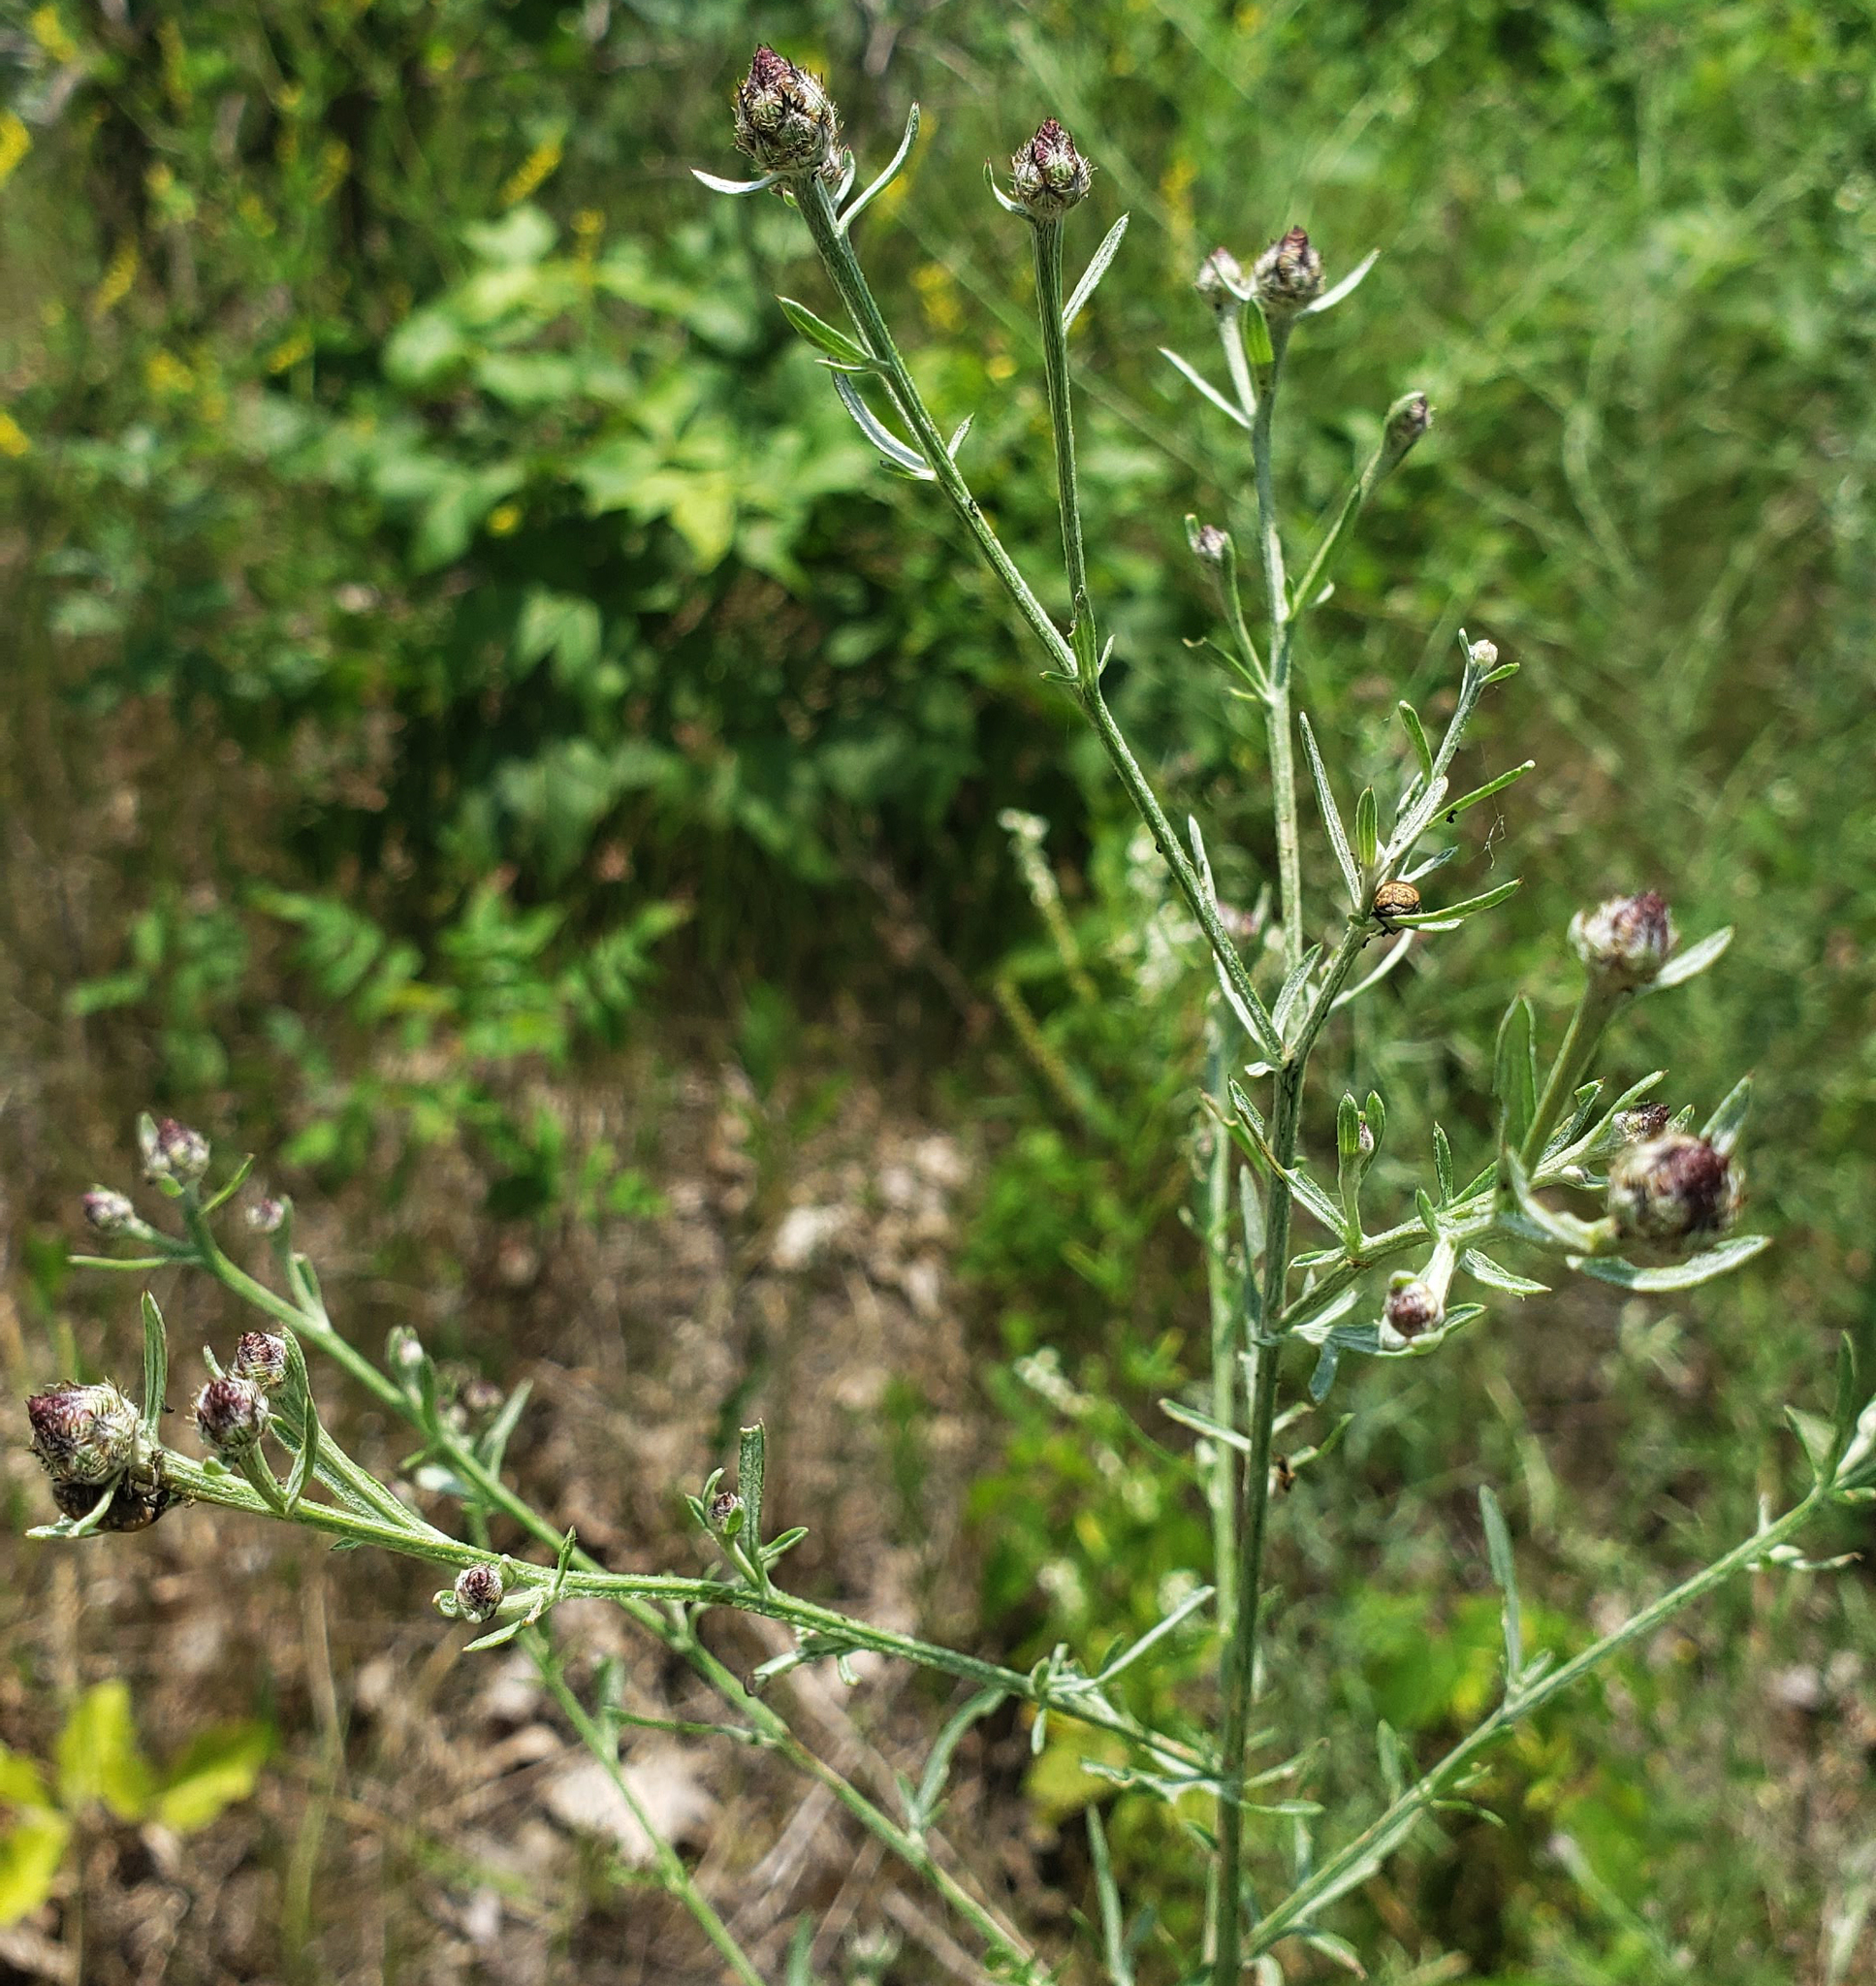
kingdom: Plantae
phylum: Tracheophyta
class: Magnoliopsida
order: Asterales
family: Asteraceae
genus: Centaurea
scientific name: Centaurea stoebe
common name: Spotted knapweed
